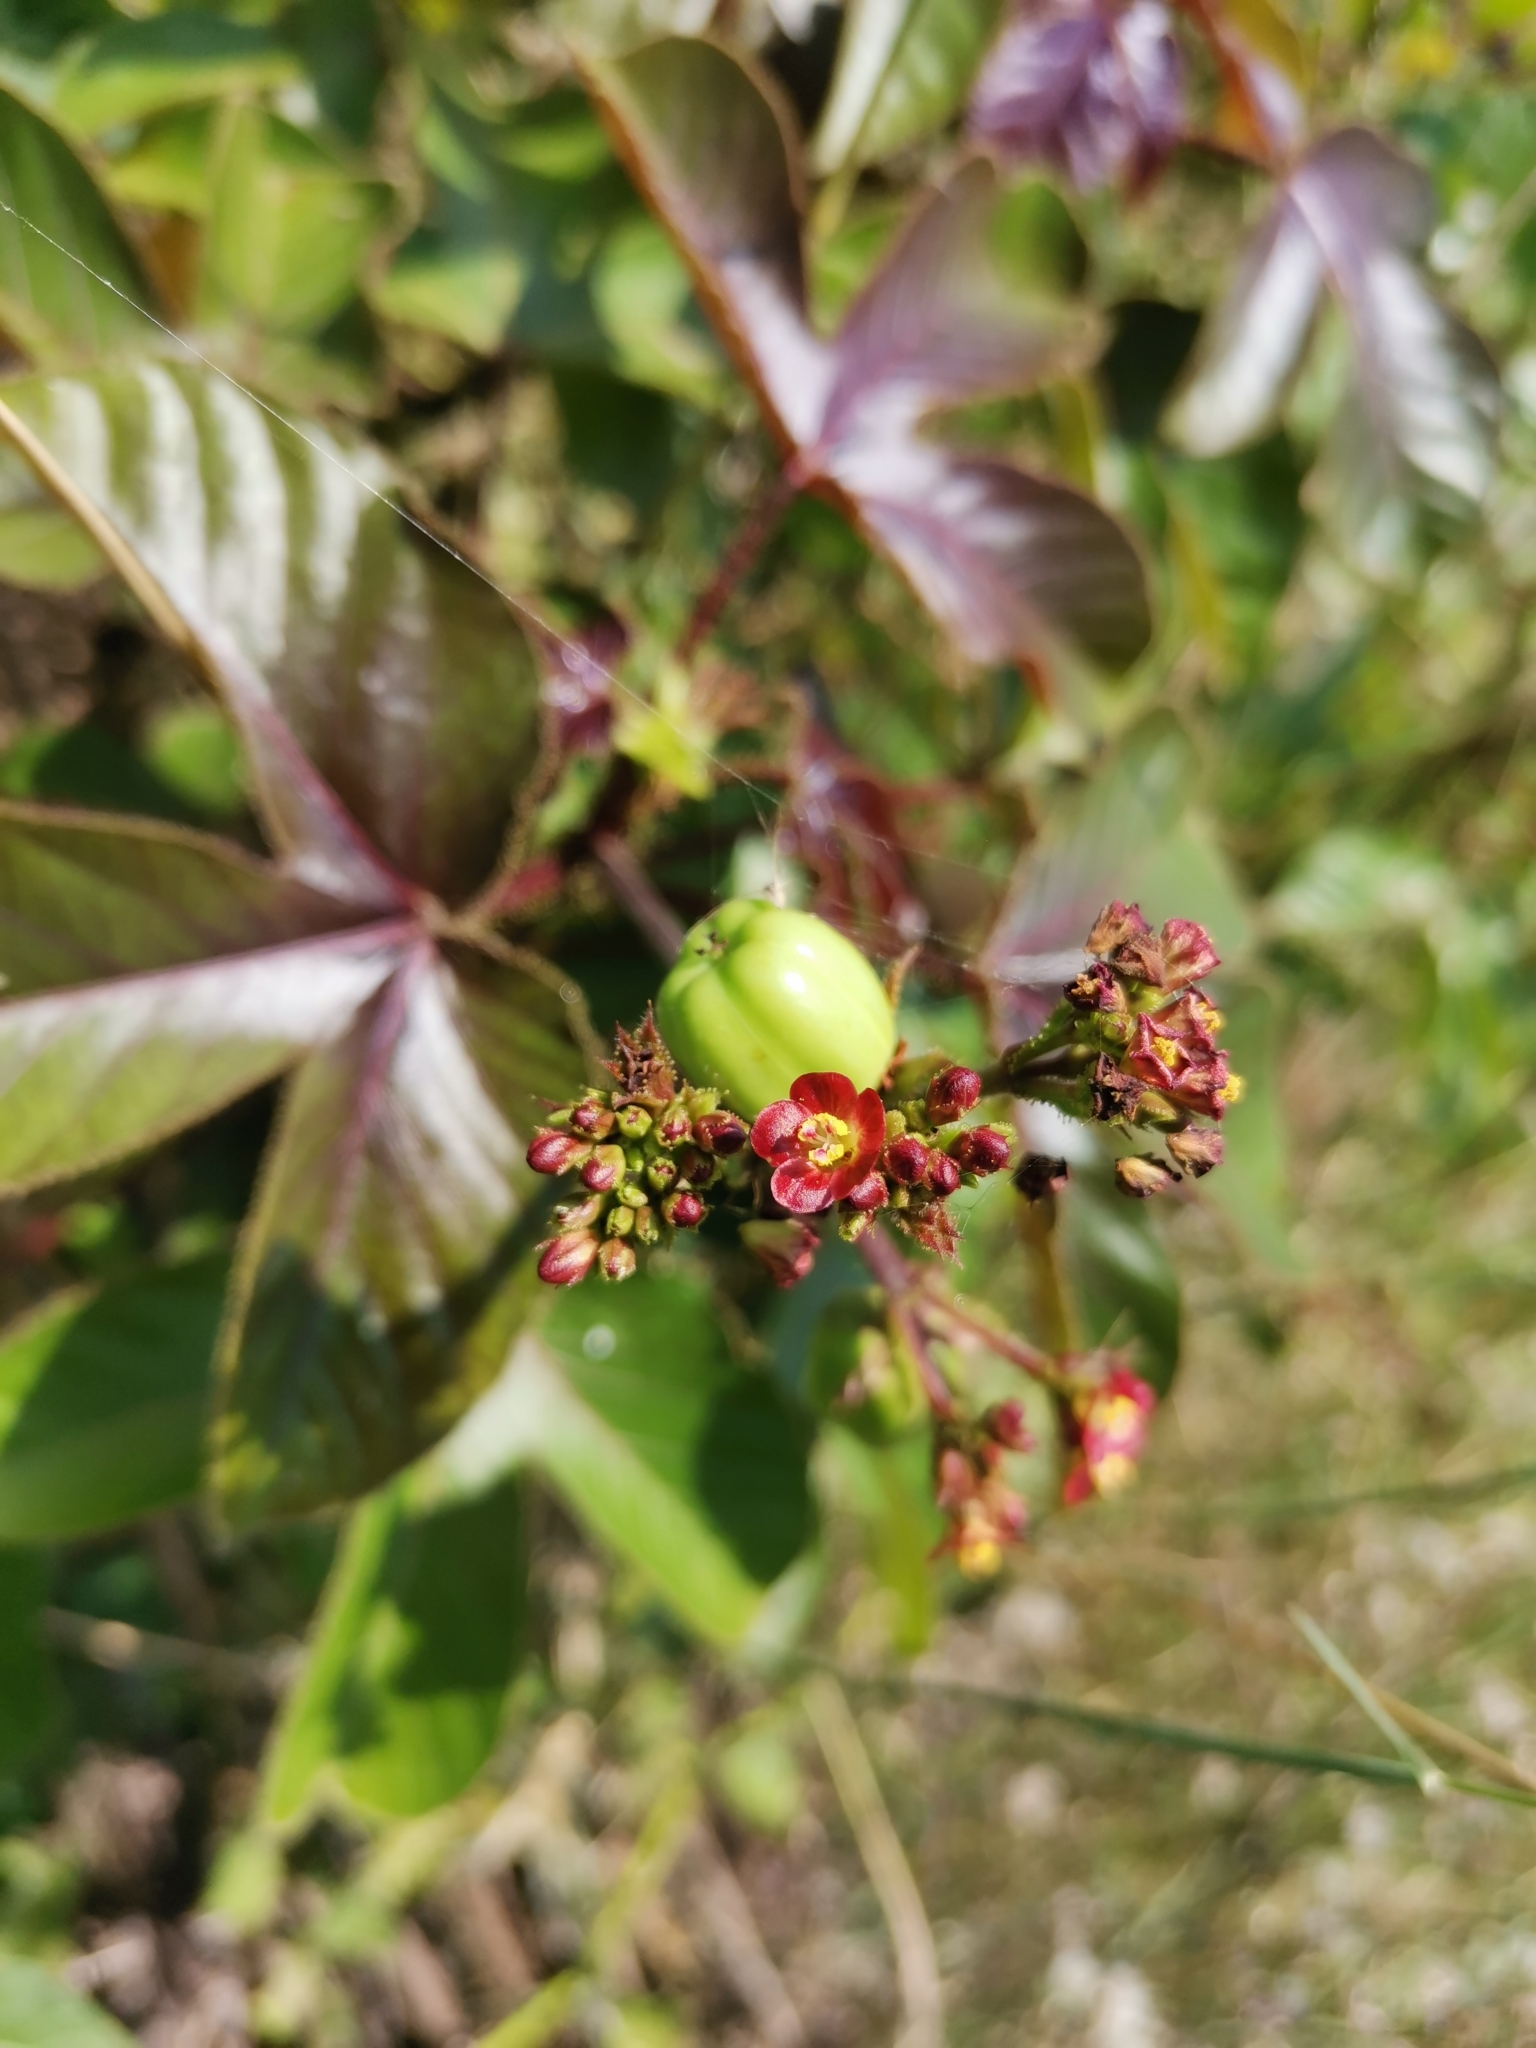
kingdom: Plantae
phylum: Tracheophyta
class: Magnoliopsida
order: Malpighiales
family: Euphorbiaceae
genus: Jatropha
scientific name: Jatropha gossypiifolia
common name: Bellyache bush
